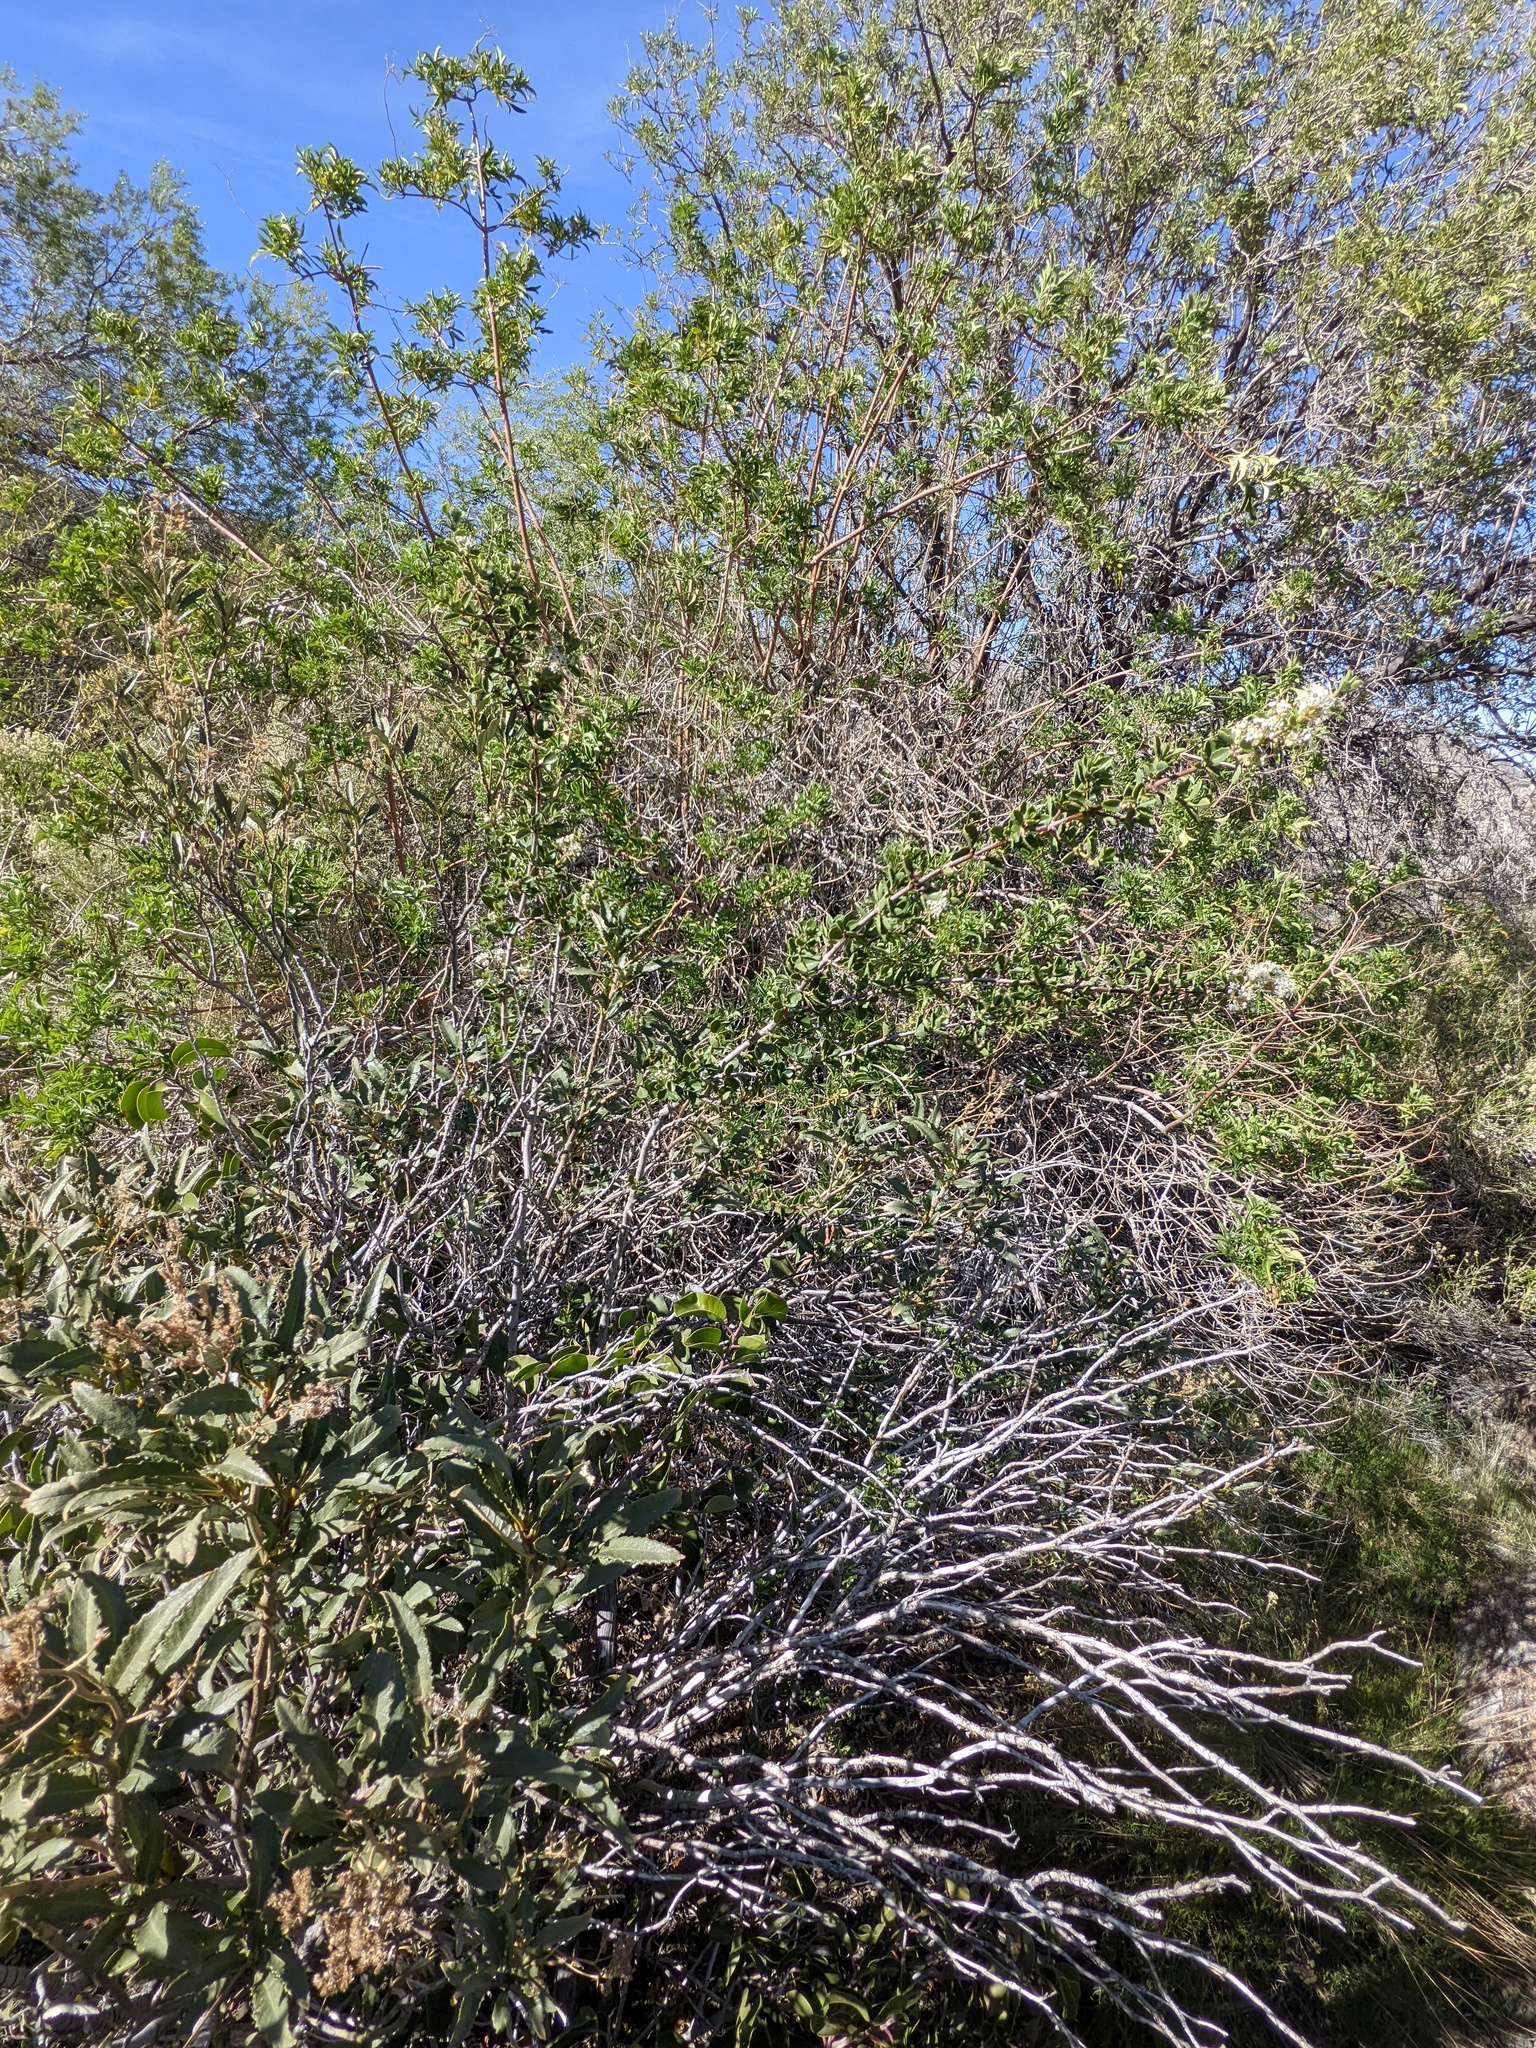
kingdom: Plantae
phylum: Tracheophyta
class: Magnoliopsida
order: Rosales
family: Rhamnaceae
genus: Ceanothus
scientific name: Ceanothus perplexans
